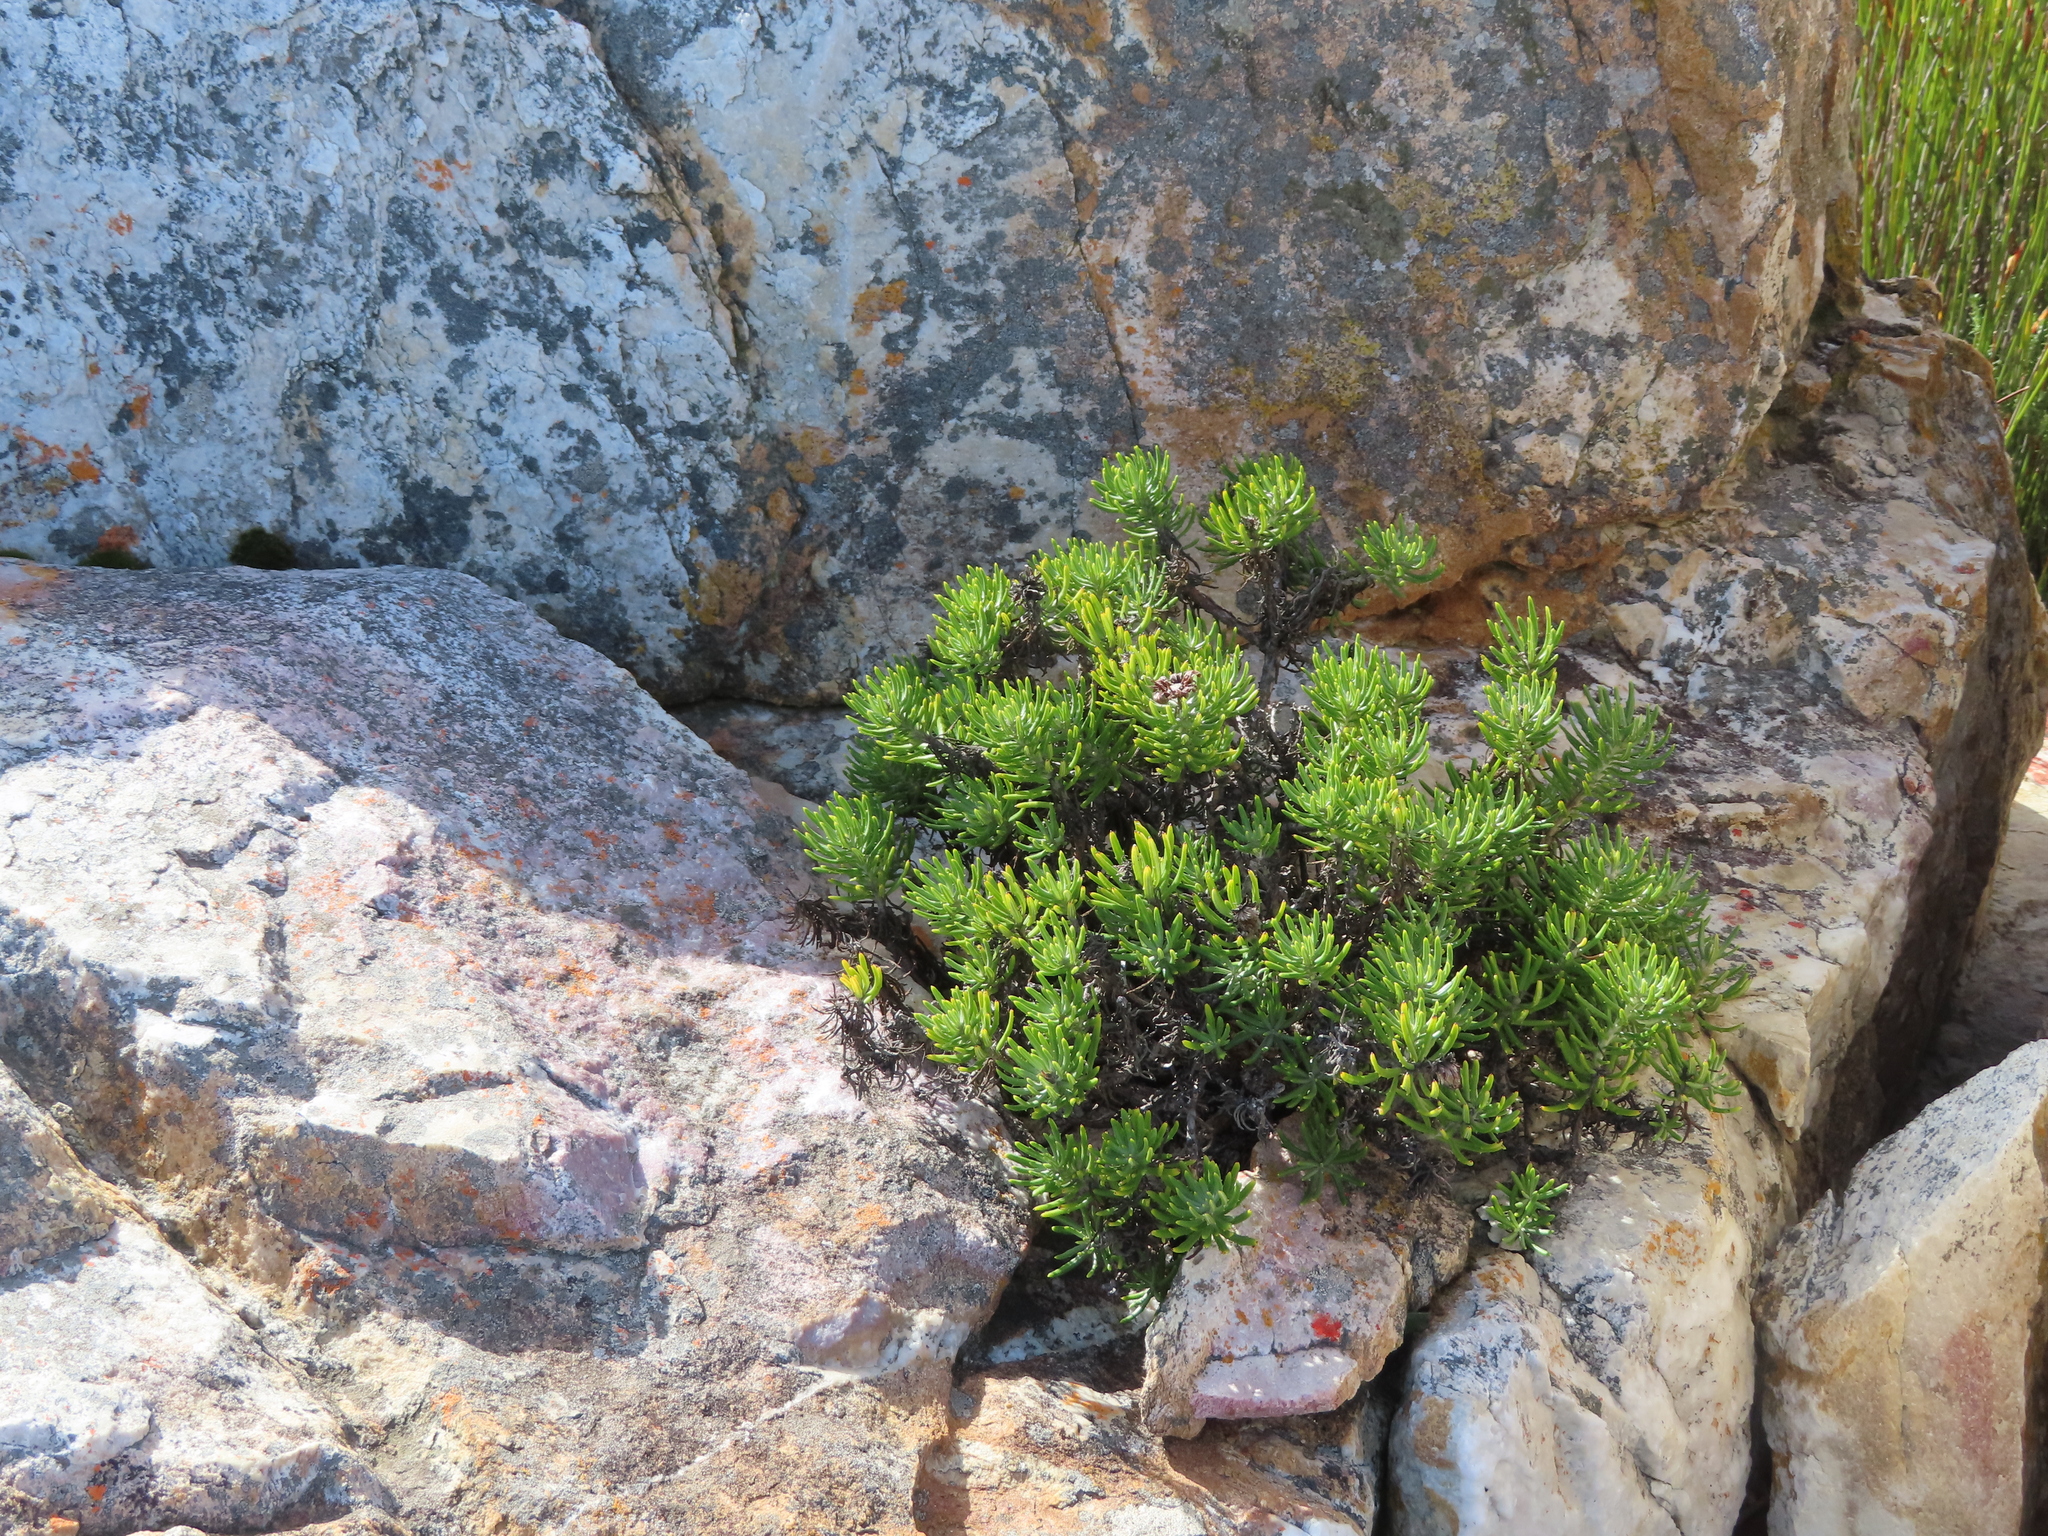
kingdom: Plantae
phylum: Tracheophyta
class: Magnoliopsida
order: Asterales
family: Asteraceae
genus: Heterolepis
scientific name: Heterolepis aliena
